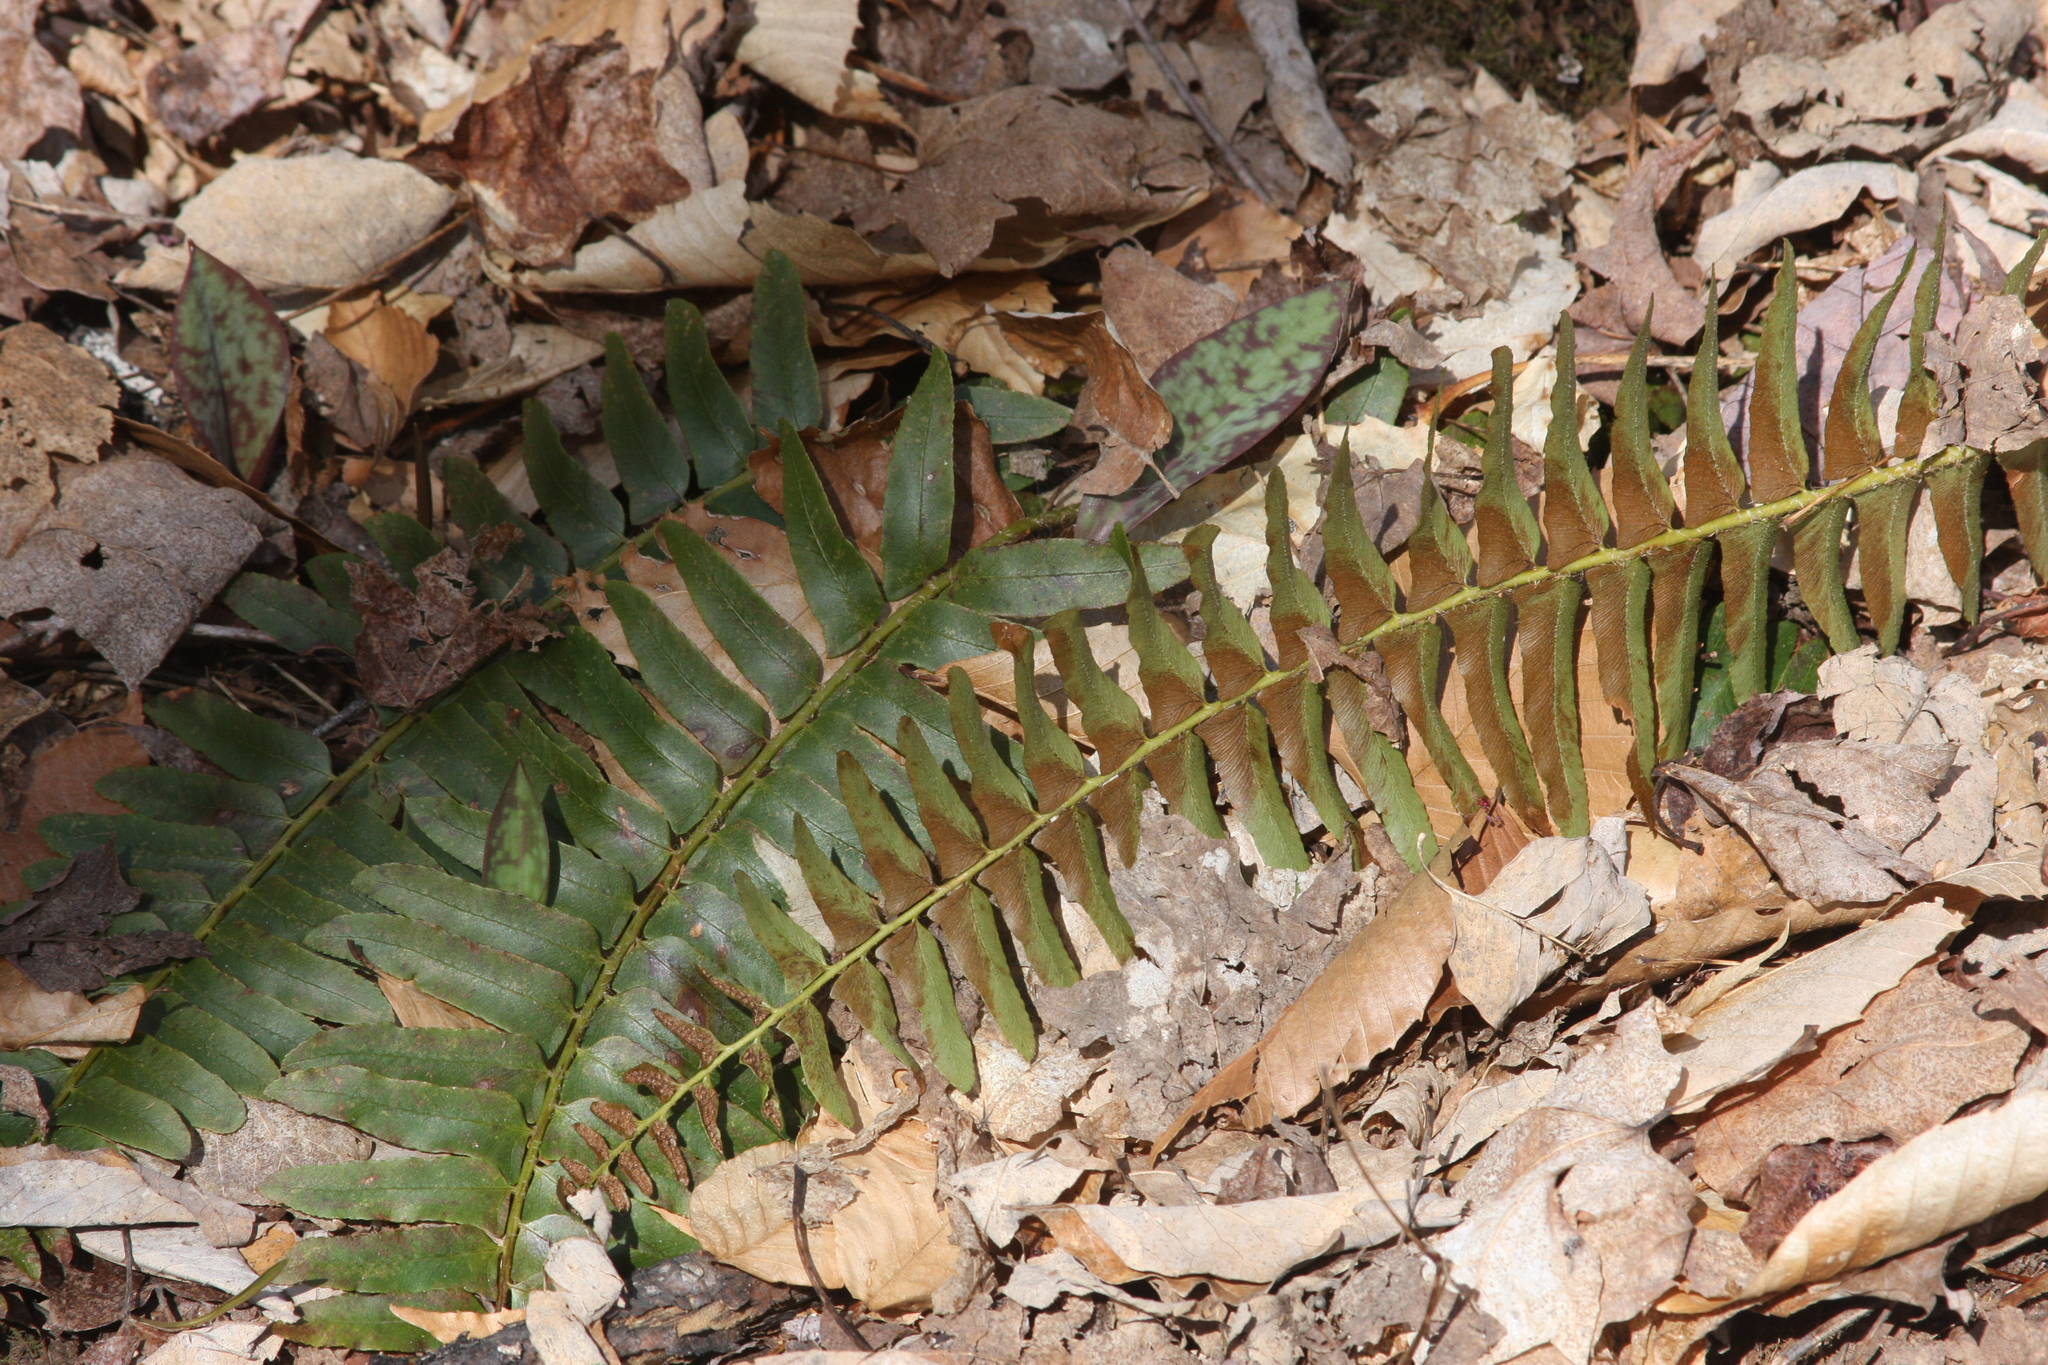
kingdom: Plantae
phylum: Tracheophyta
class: Polypodiopsida
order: Polypodiales
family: Dryopteridaceae
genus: Polystichum
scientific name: Polystichum acrostichoides
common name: Christmas fern
